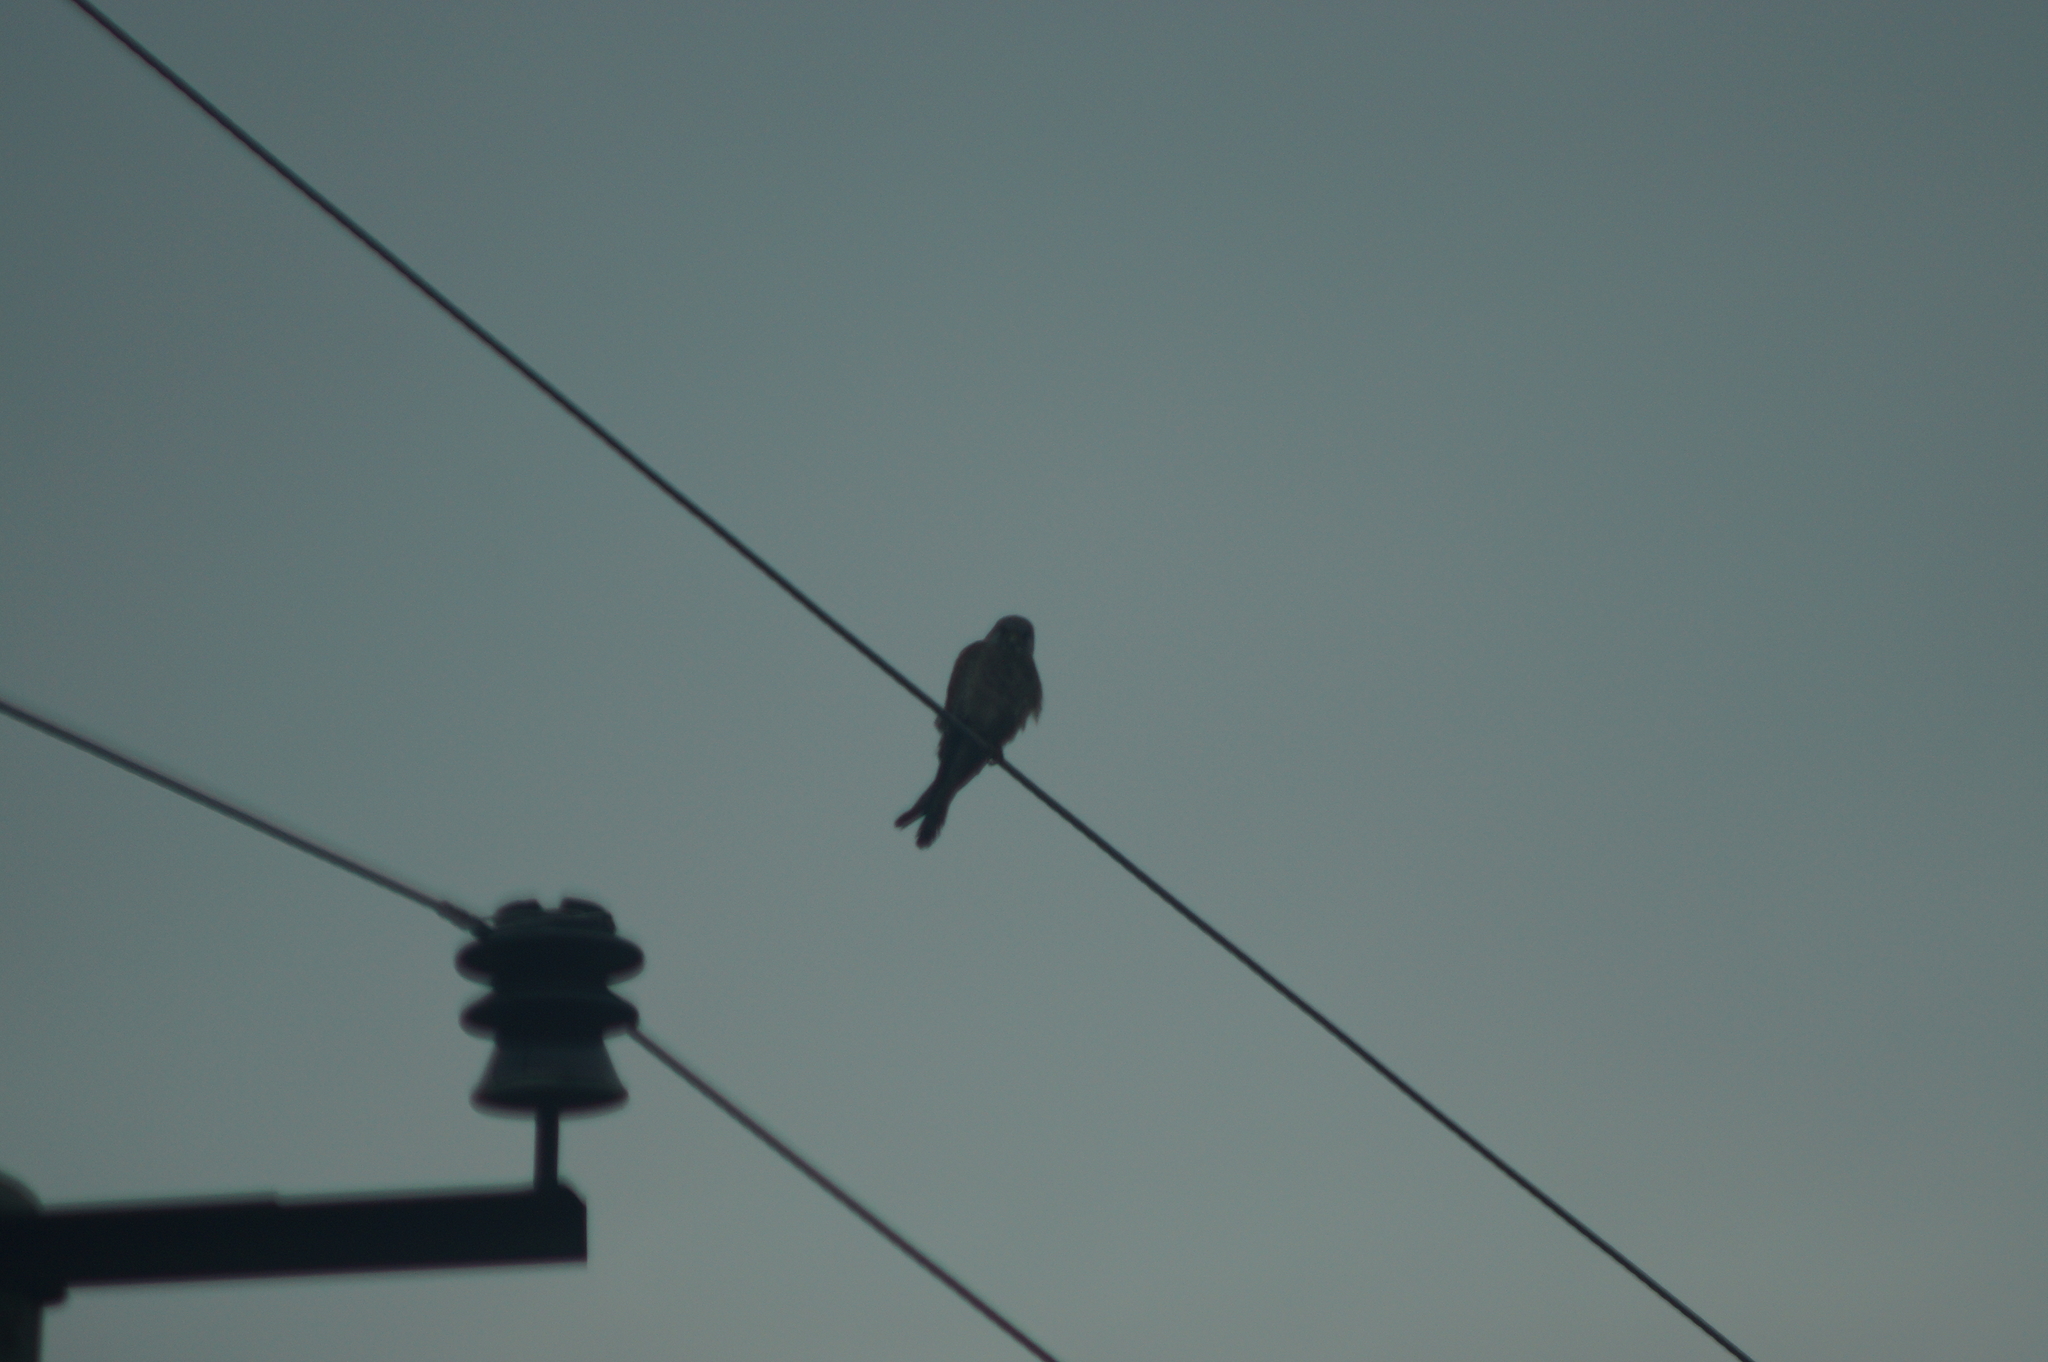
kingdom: Animalia
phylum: Chordata
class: Aves
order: Falconiformes
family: Falconidae
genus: Falco
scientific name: Falco tinnunculus
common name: Common kestrel
